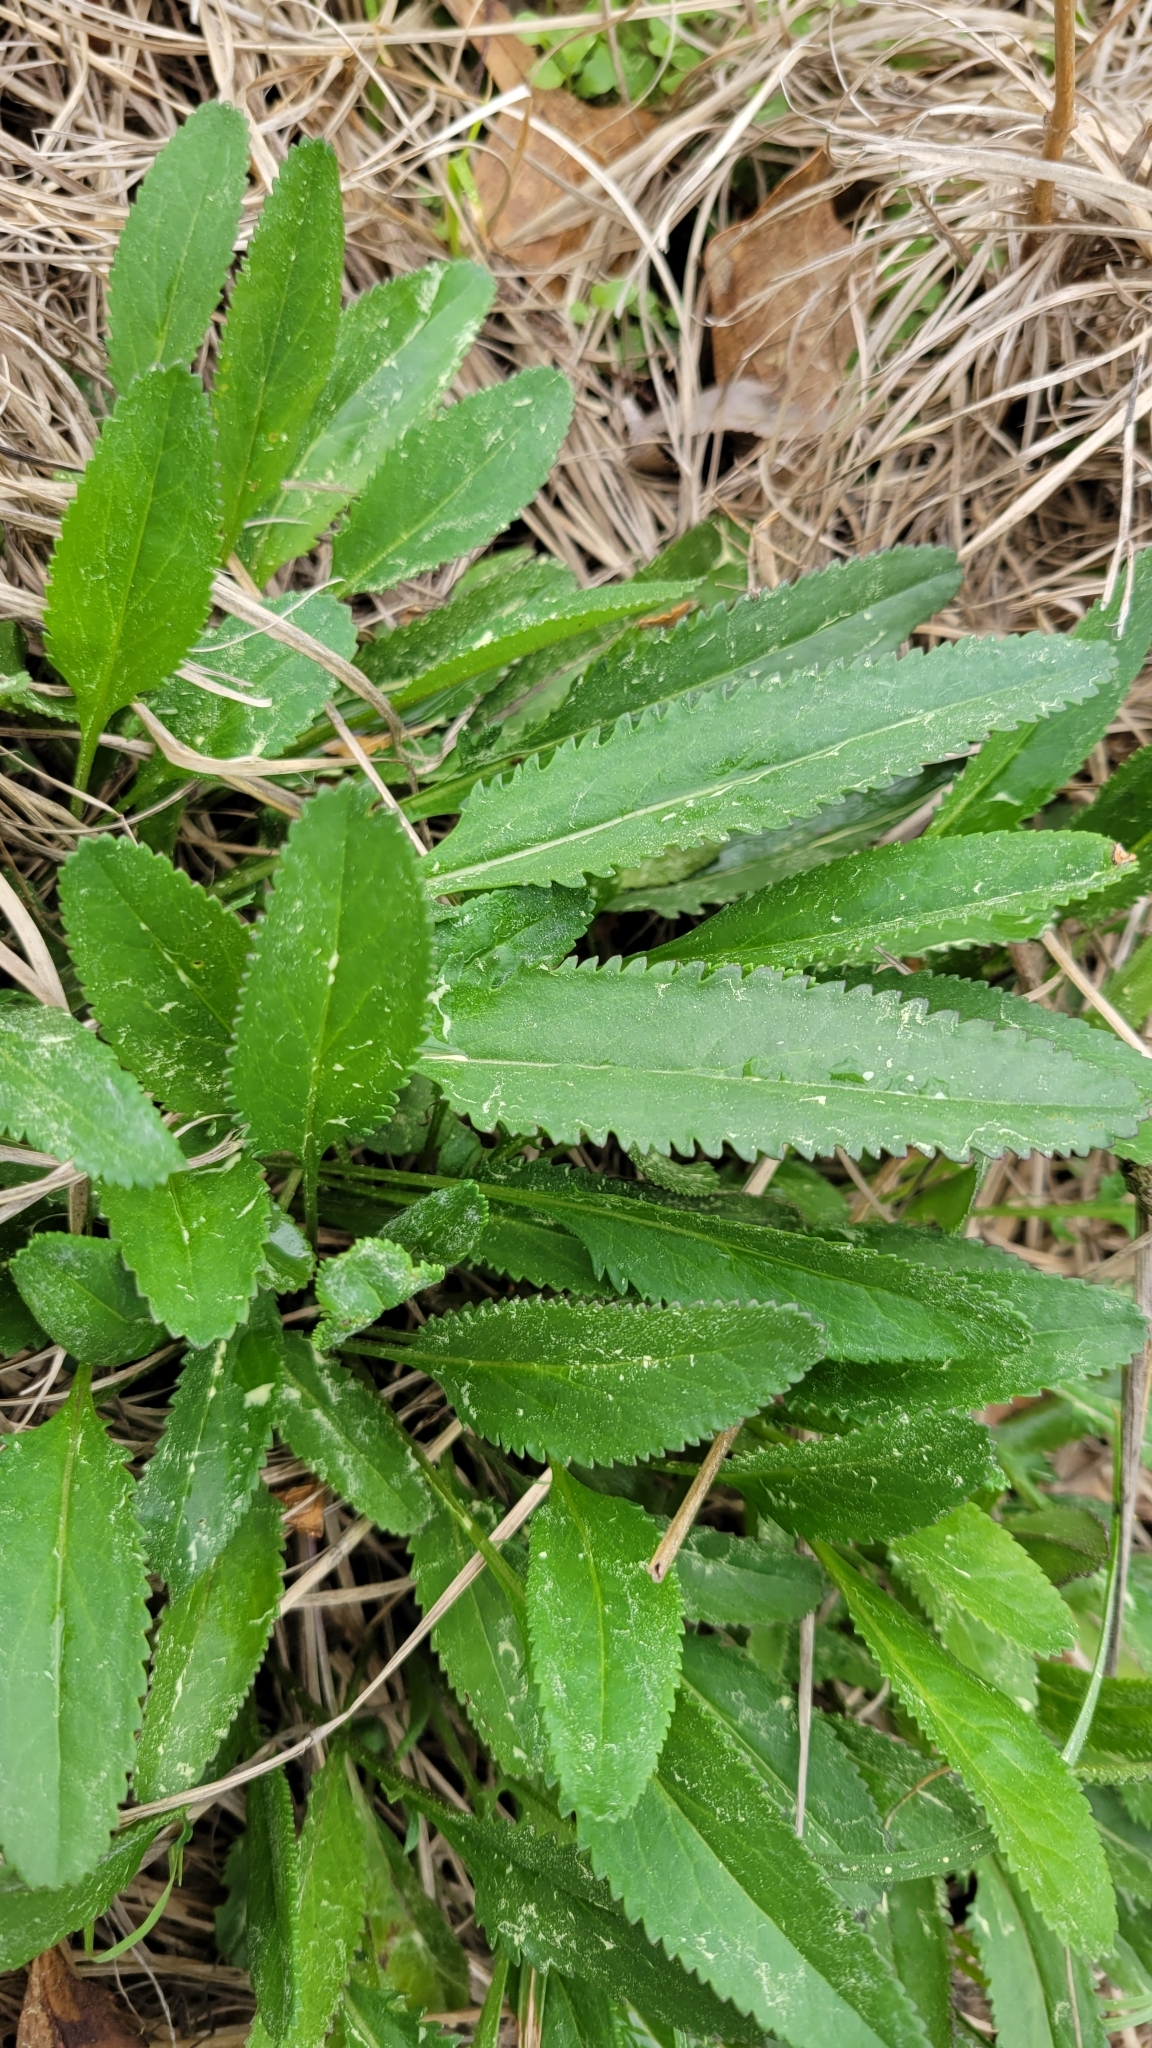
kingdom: Plantae
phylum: Tracheophyta
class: Magnoliopsida
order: Asterales
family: Asteraceae
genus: Packera
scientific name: Packera anonyma
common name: Small ragwort
